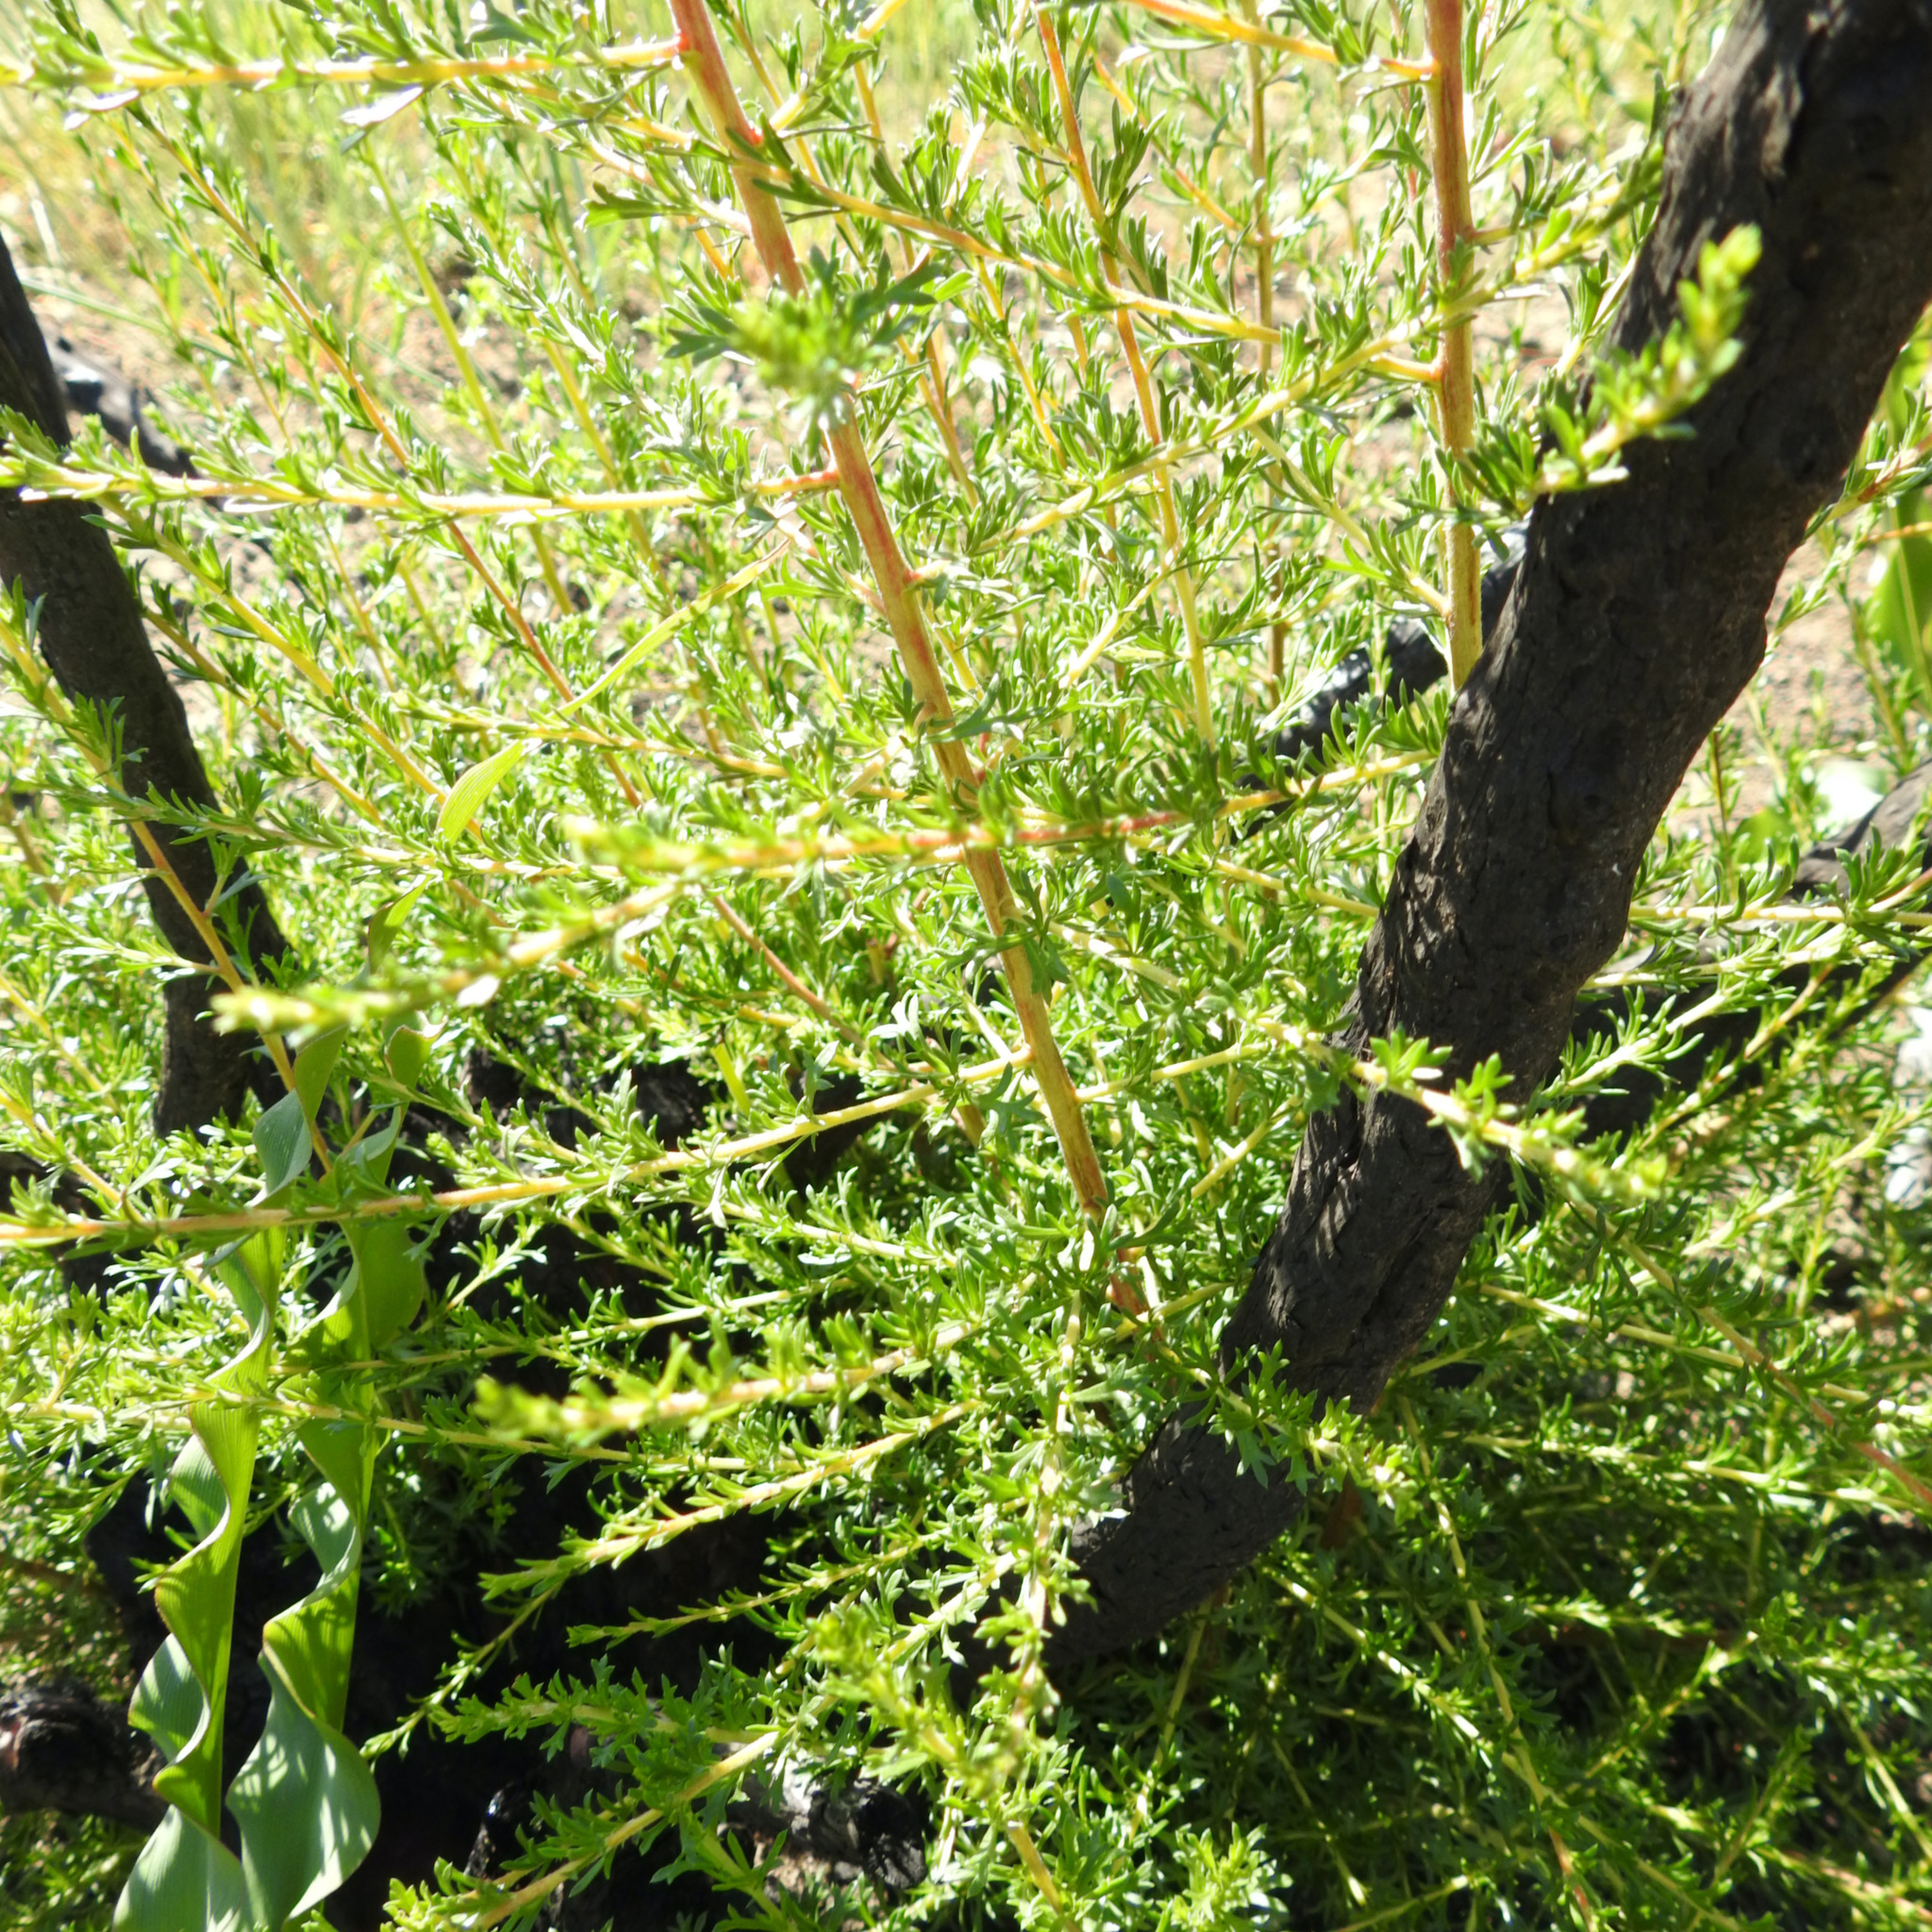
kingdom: Plantae
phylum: Tracheophyta
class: Magnoliopsida
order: Rosales
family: Rosaceae
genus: Adenostoma
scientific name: Adenostoma fasciculatum
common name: Chamise
